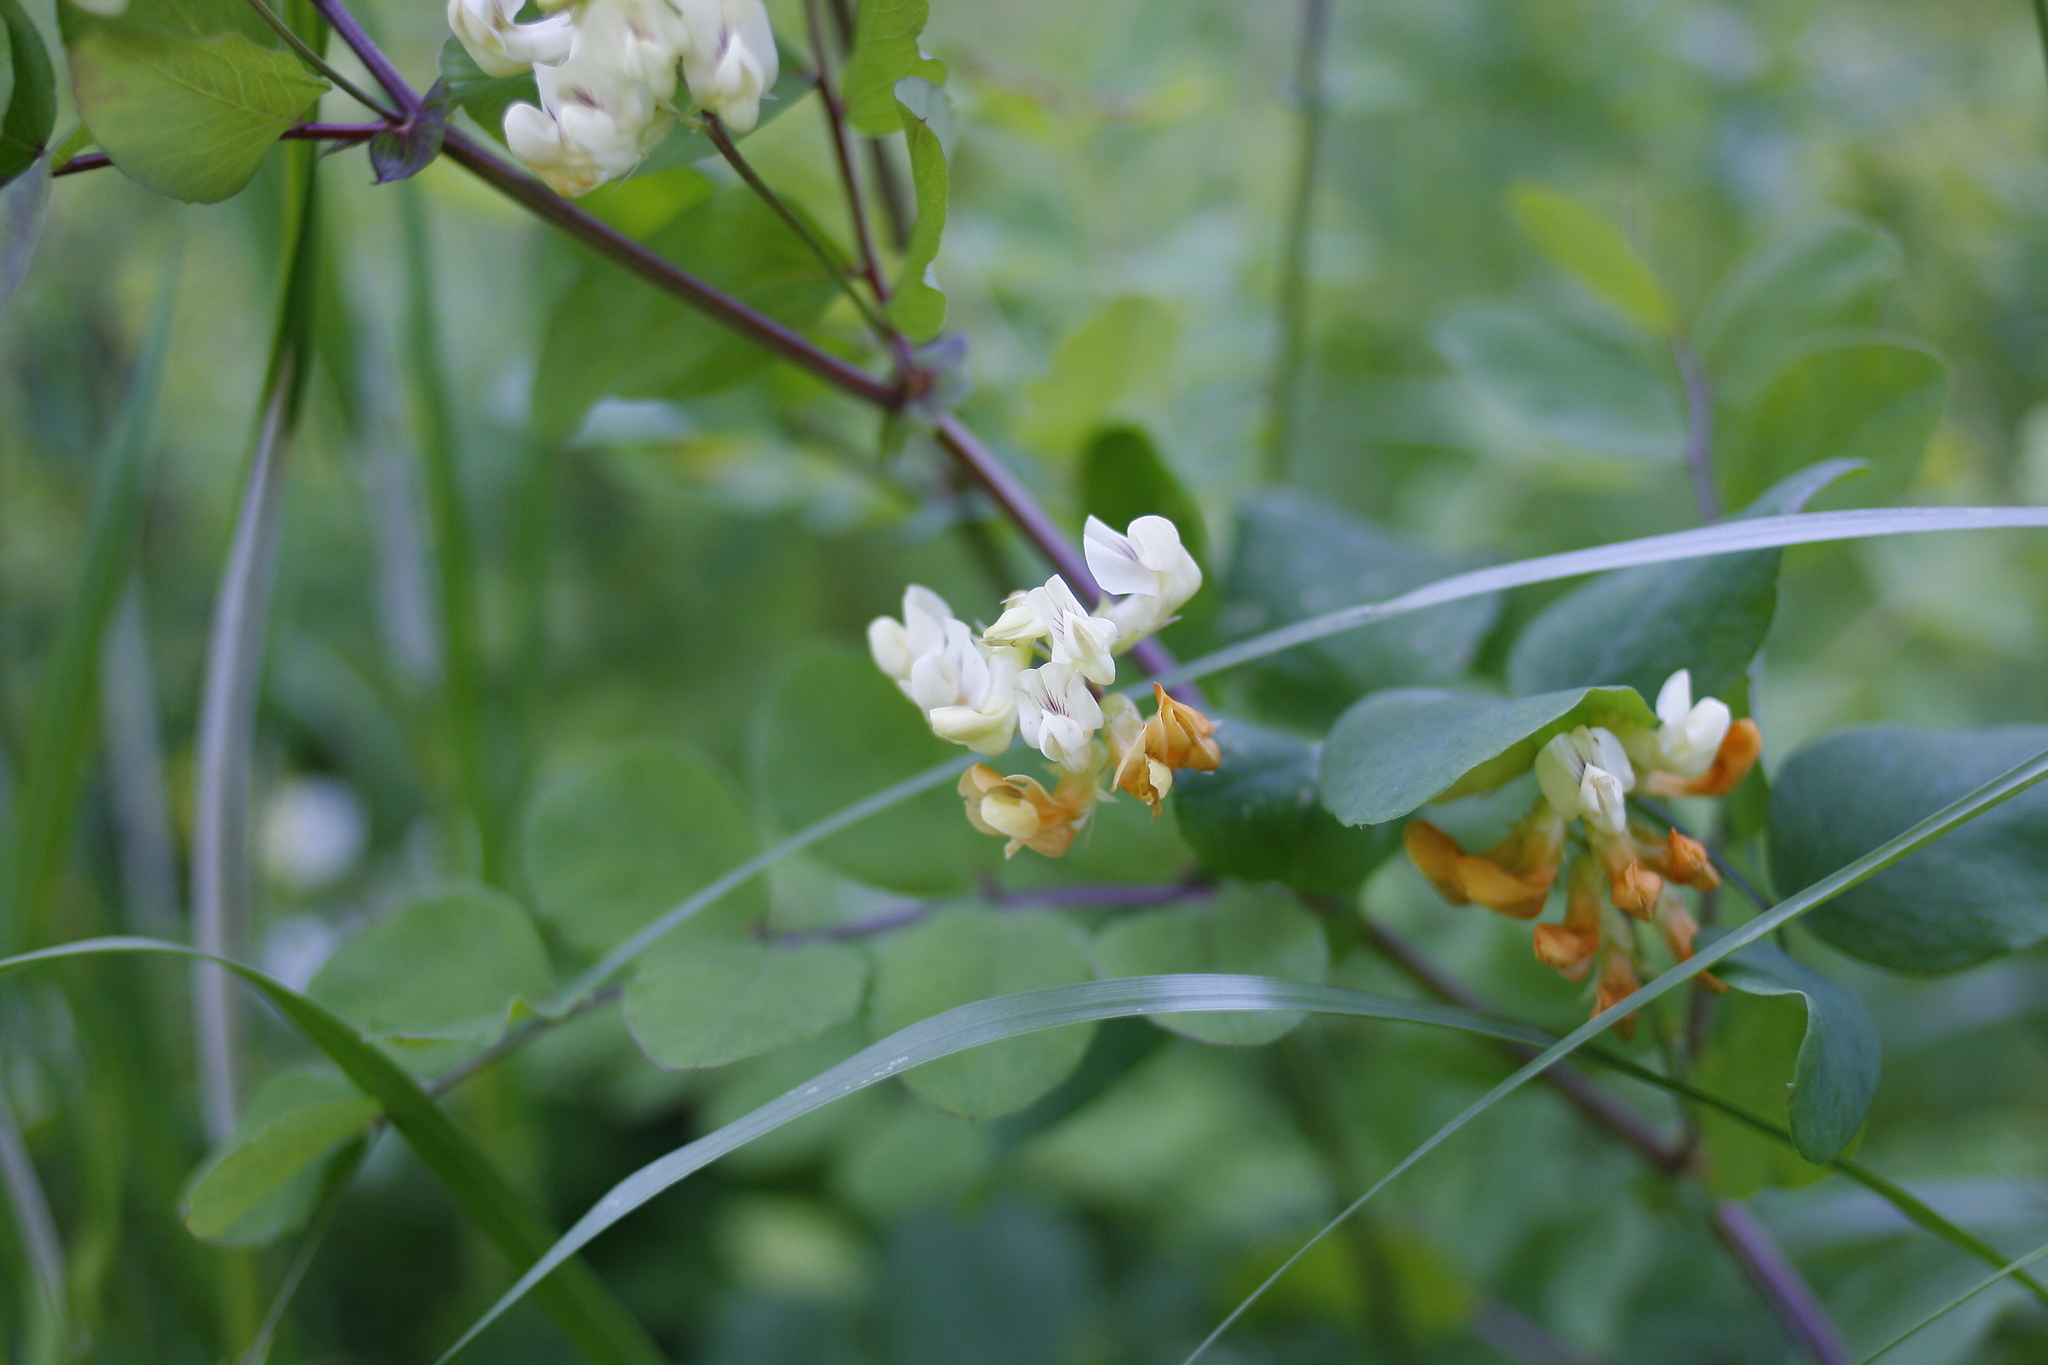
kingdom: Plantae
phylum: Tracheophyta
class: Magnoliopsida
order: Fabales
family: Fabaceae
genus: Lathyrus
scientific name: Lathyrus holochlorus
